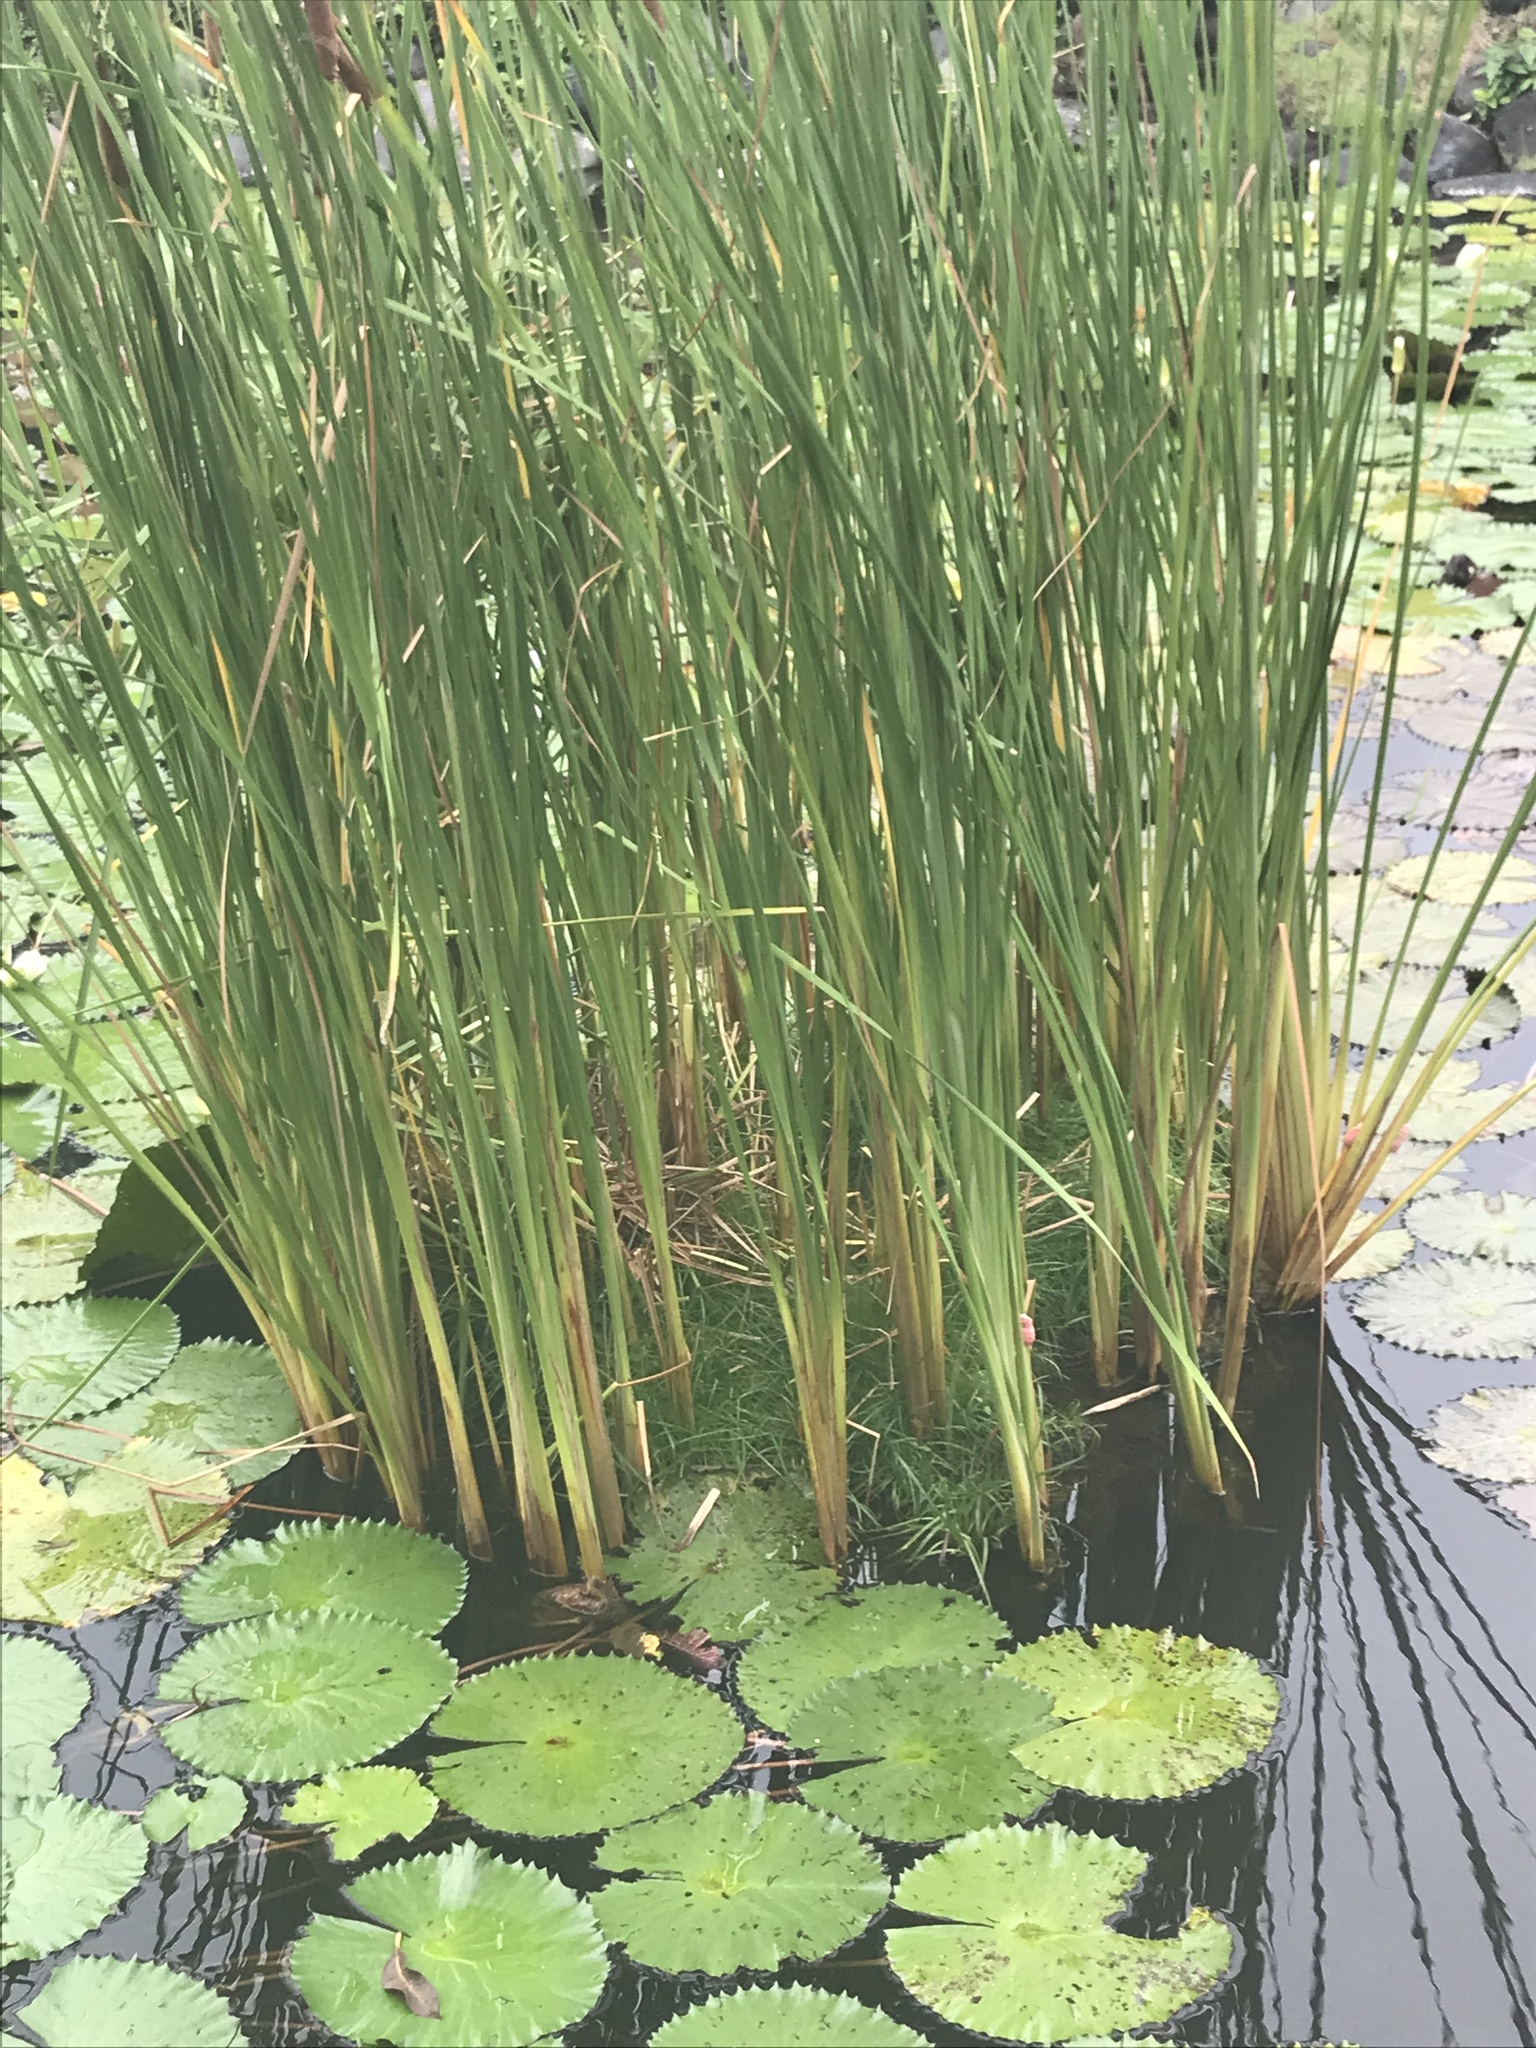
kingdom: Animalia
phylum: Chordata
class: Aves
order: Gruiformes
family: Rallidae
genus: Amaurornis
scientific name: Amaurornis phoenicurus
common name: White-breasted waterhen
